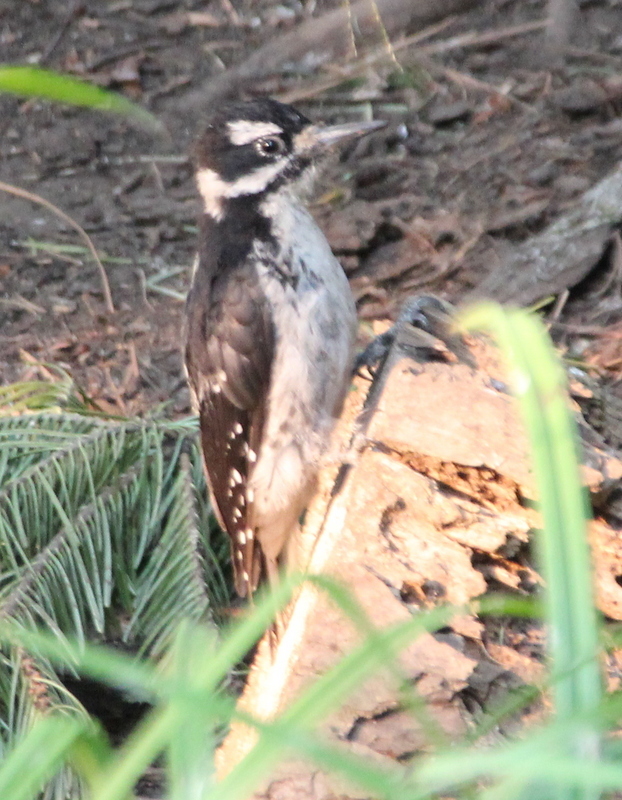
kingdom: Animalia
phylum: Chordata
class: Aves
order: Piciformes
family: Picidae
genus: Leuconotopicus
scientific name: Leuconotopicus villosus
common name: Hairy woodpecker
